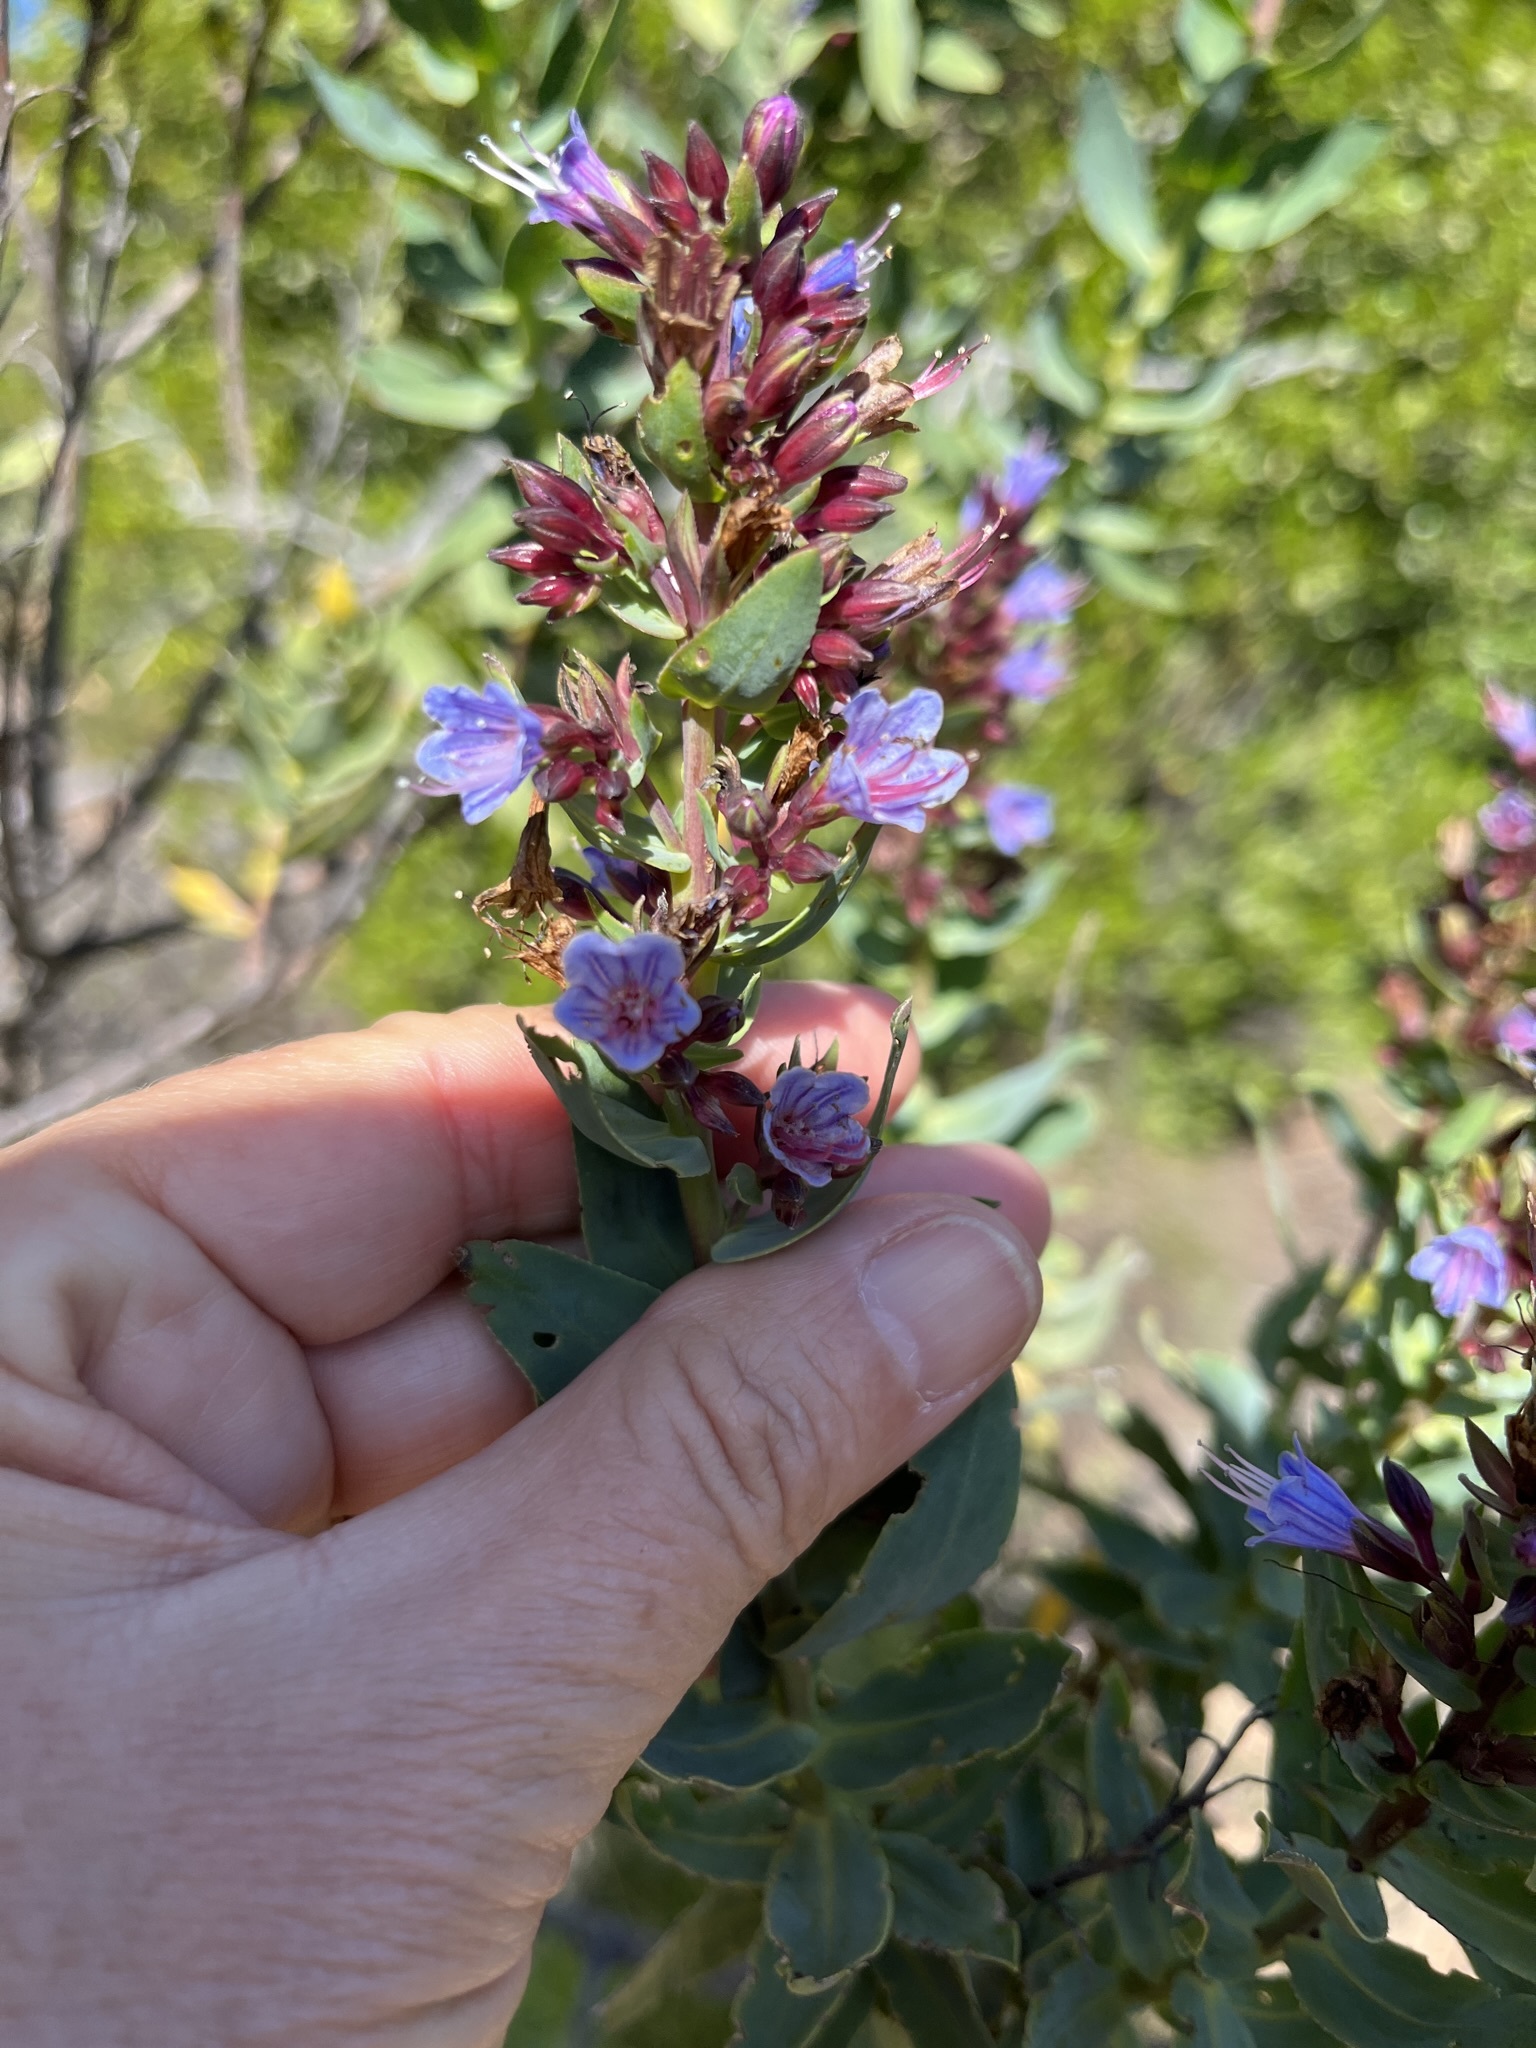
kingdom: Plantae
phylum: Tracheophyta
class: Magnoliopsida
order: Boraginales
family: Boraginaceae
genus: Lobostemon
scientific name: Lobostemon laevigatus
